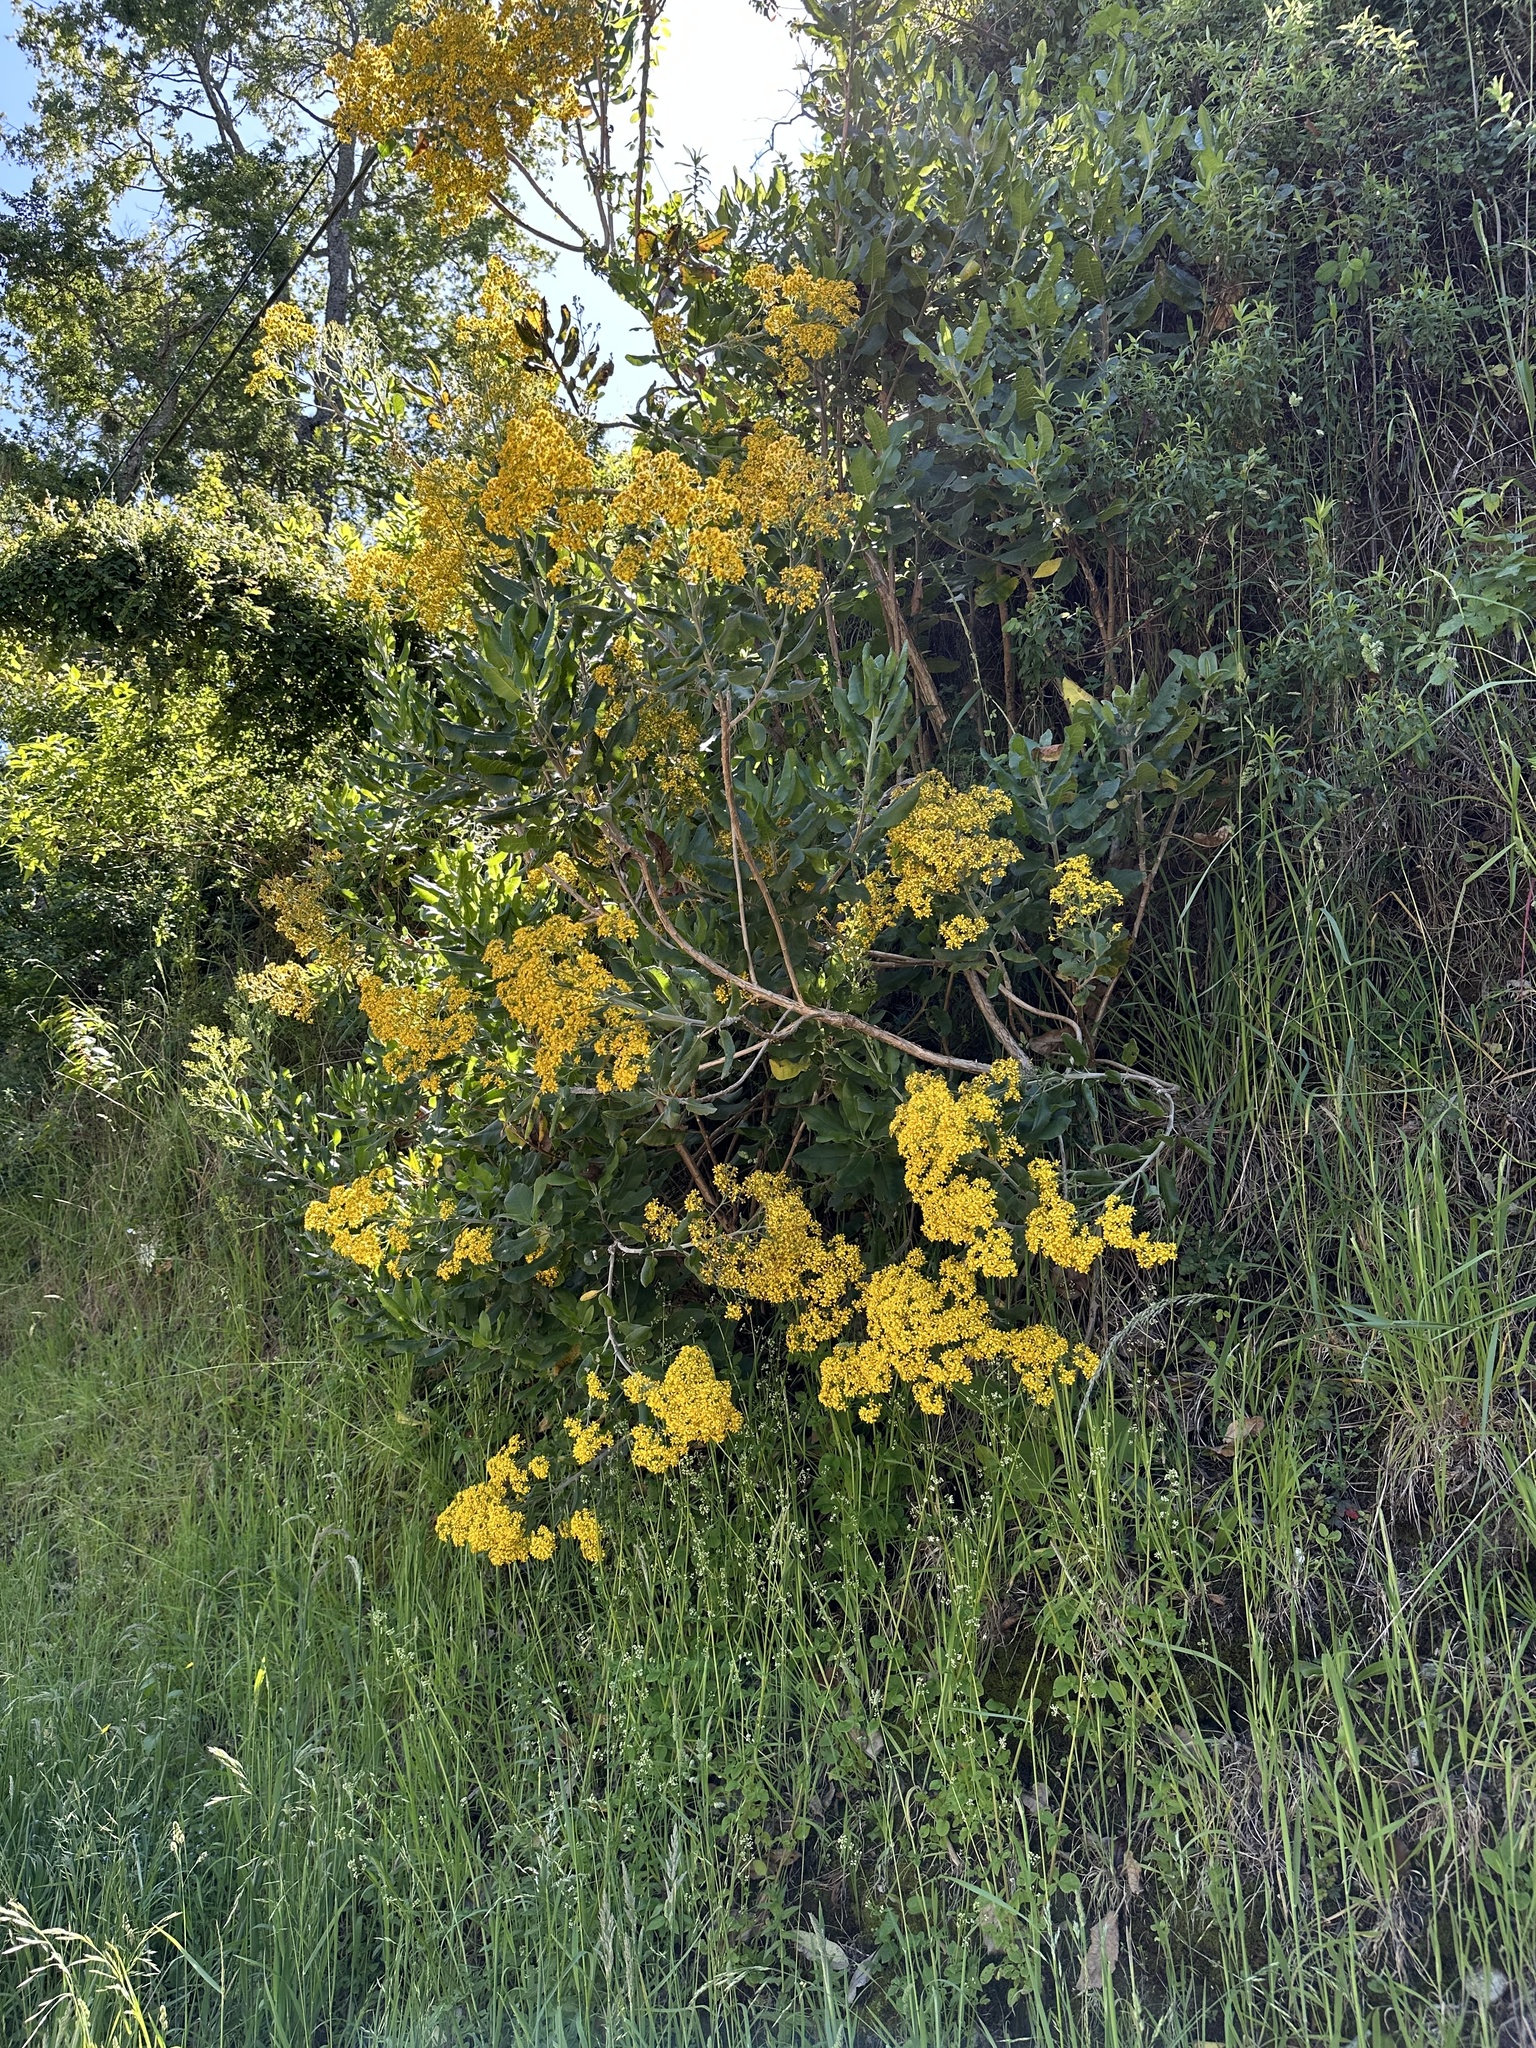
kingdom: Plantae
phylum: Tracheophyta
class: Magnoliopsida
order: Asterales
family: Asteraceae
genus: Acrisione
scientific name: Acrisione denticulata
